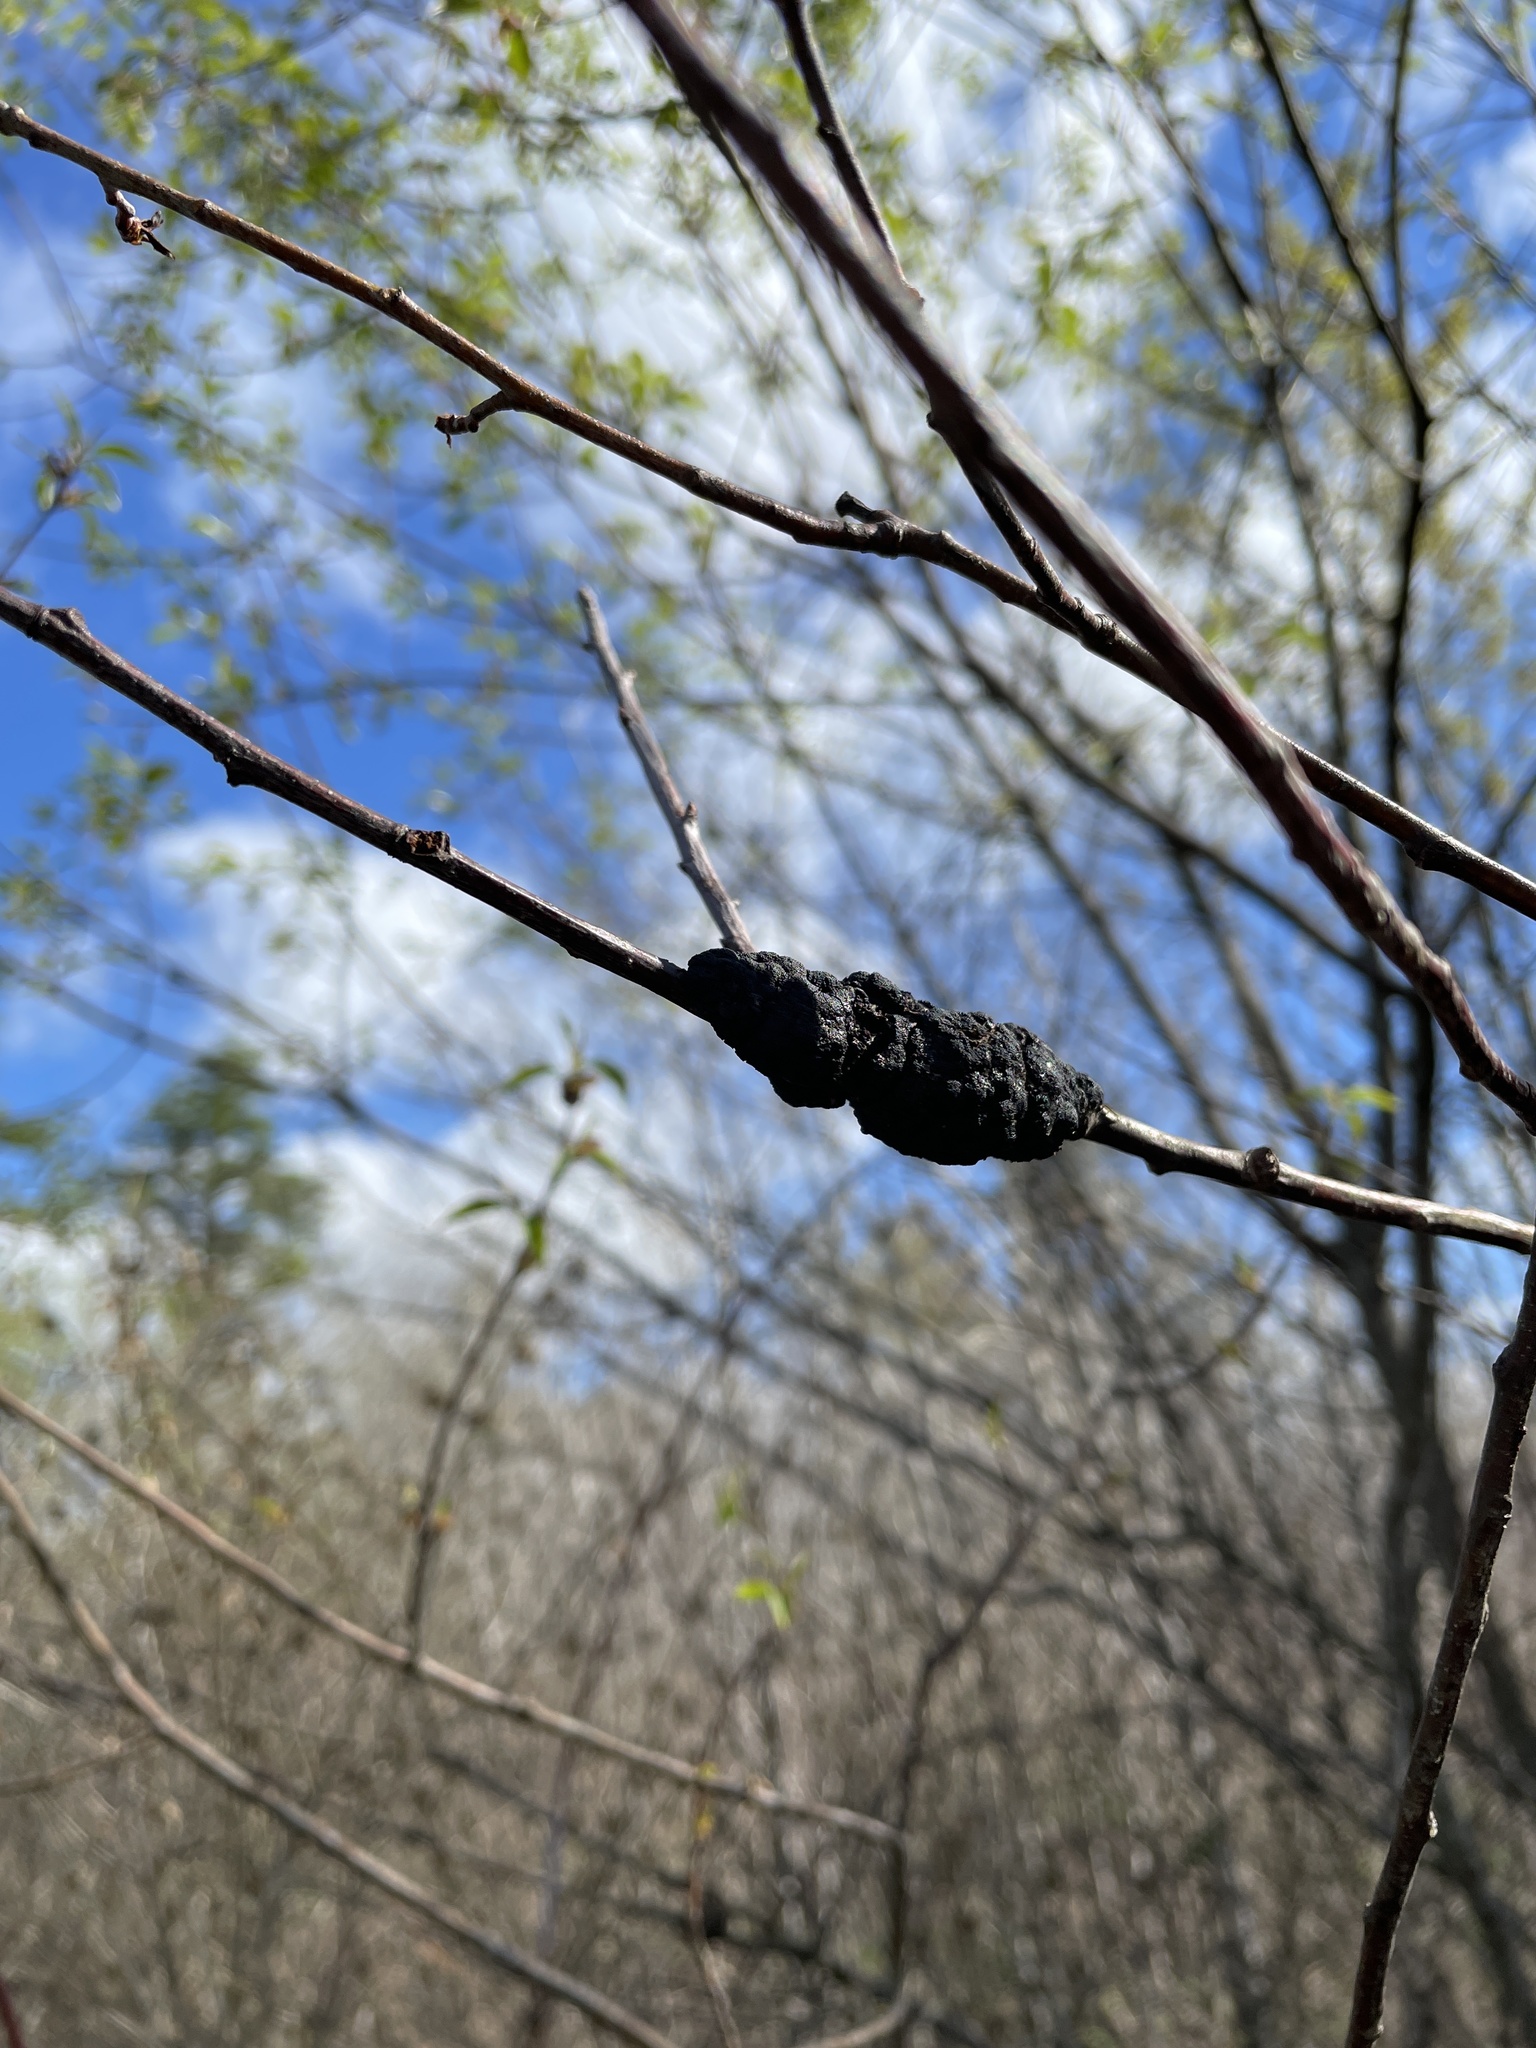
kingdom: Fungi
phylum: Ascomycota
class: Dothideomycetes
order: Venturiales
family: Venturiaceae
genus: Apiosporina
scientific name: Apiosporina morbosa
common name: Black knot
